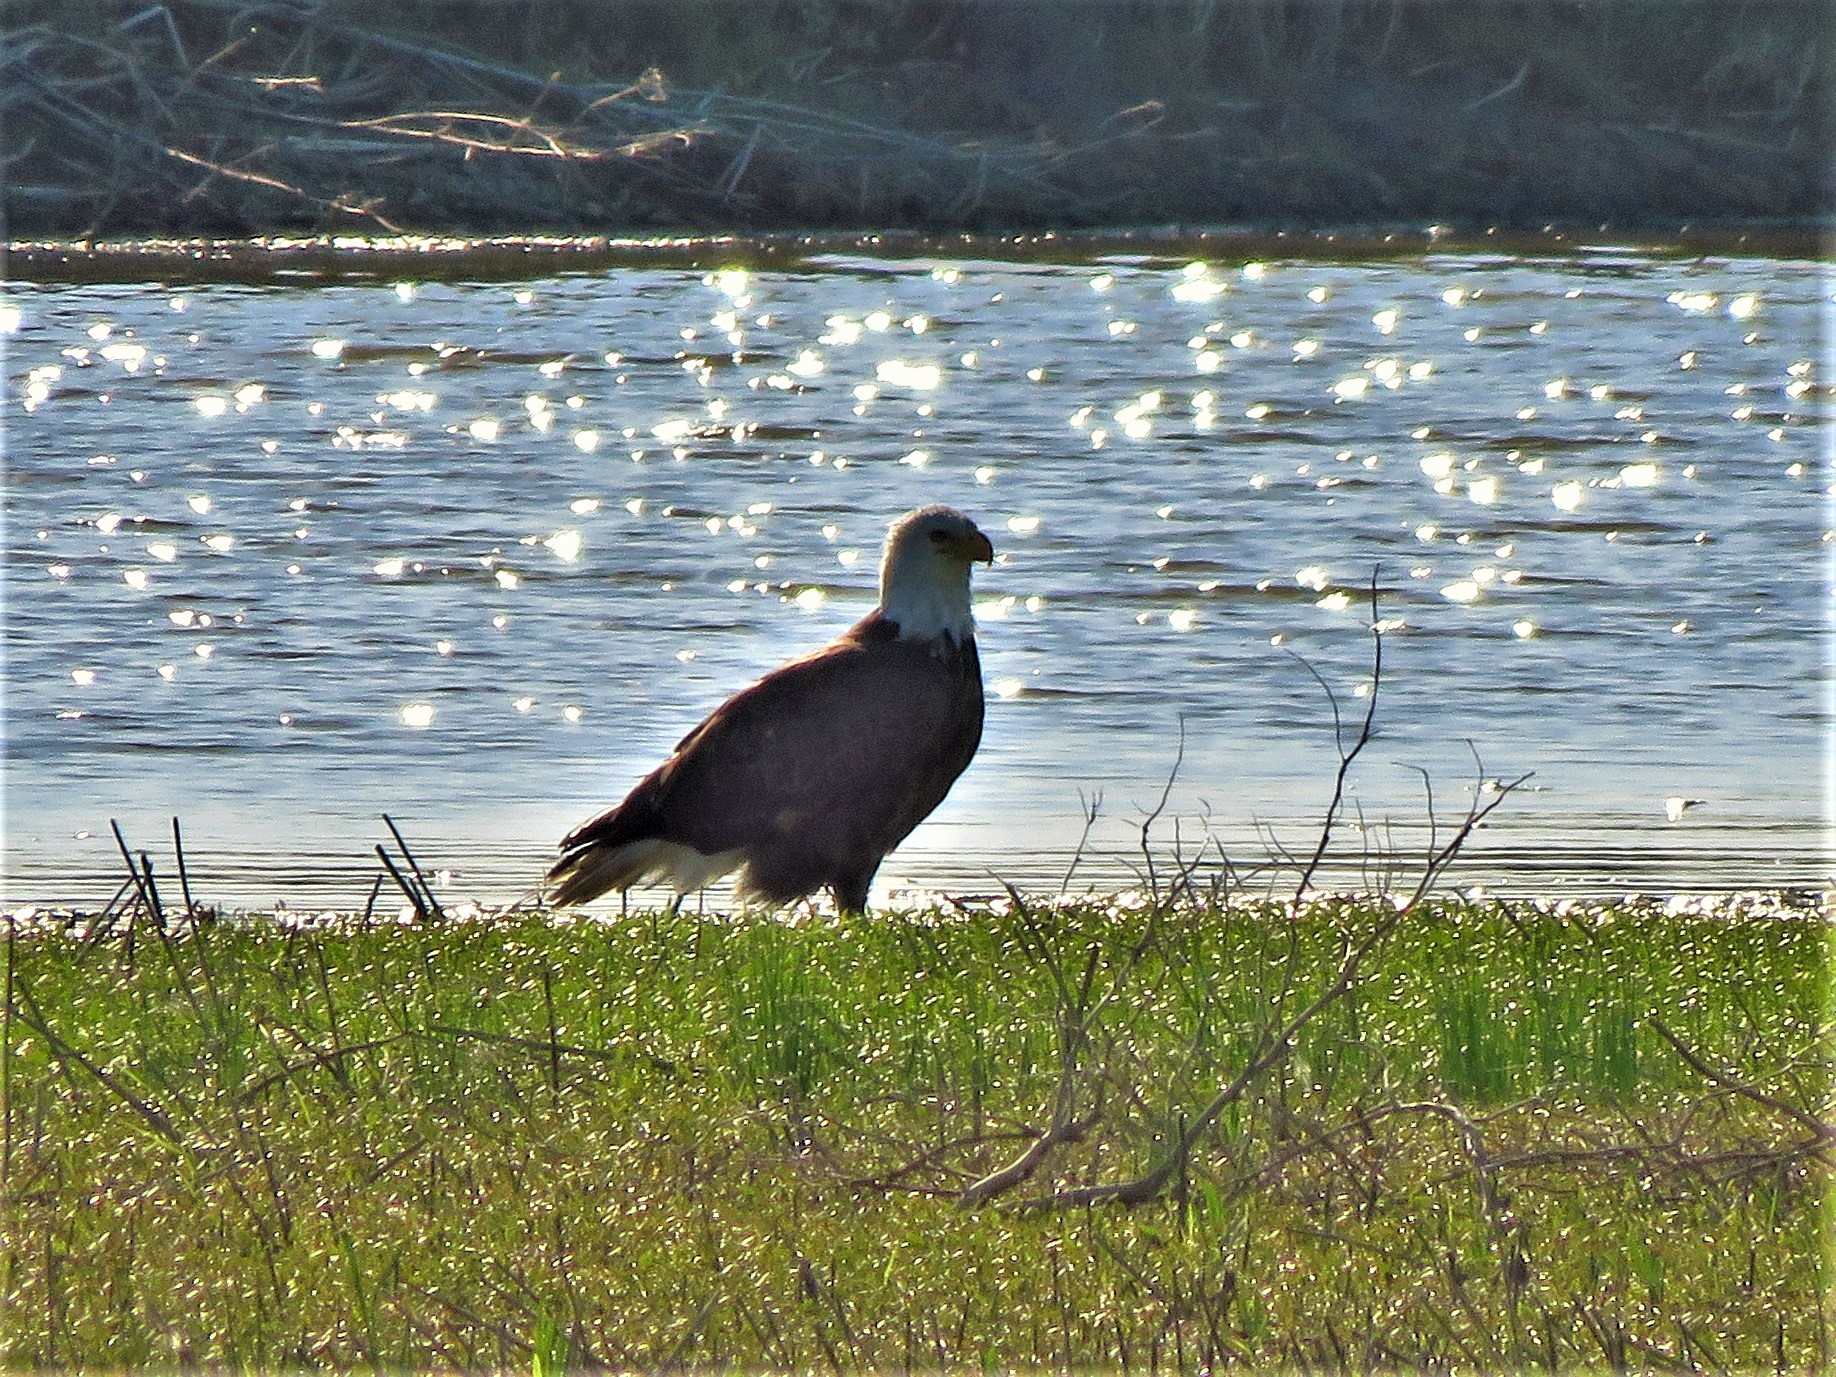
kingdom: Animalia
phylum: Chordata
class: Aves
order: Accipitriformes
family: Accipitridae
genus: Haliaeetus
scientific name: Haliaeetus leucocephalus
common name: Bald eagle
